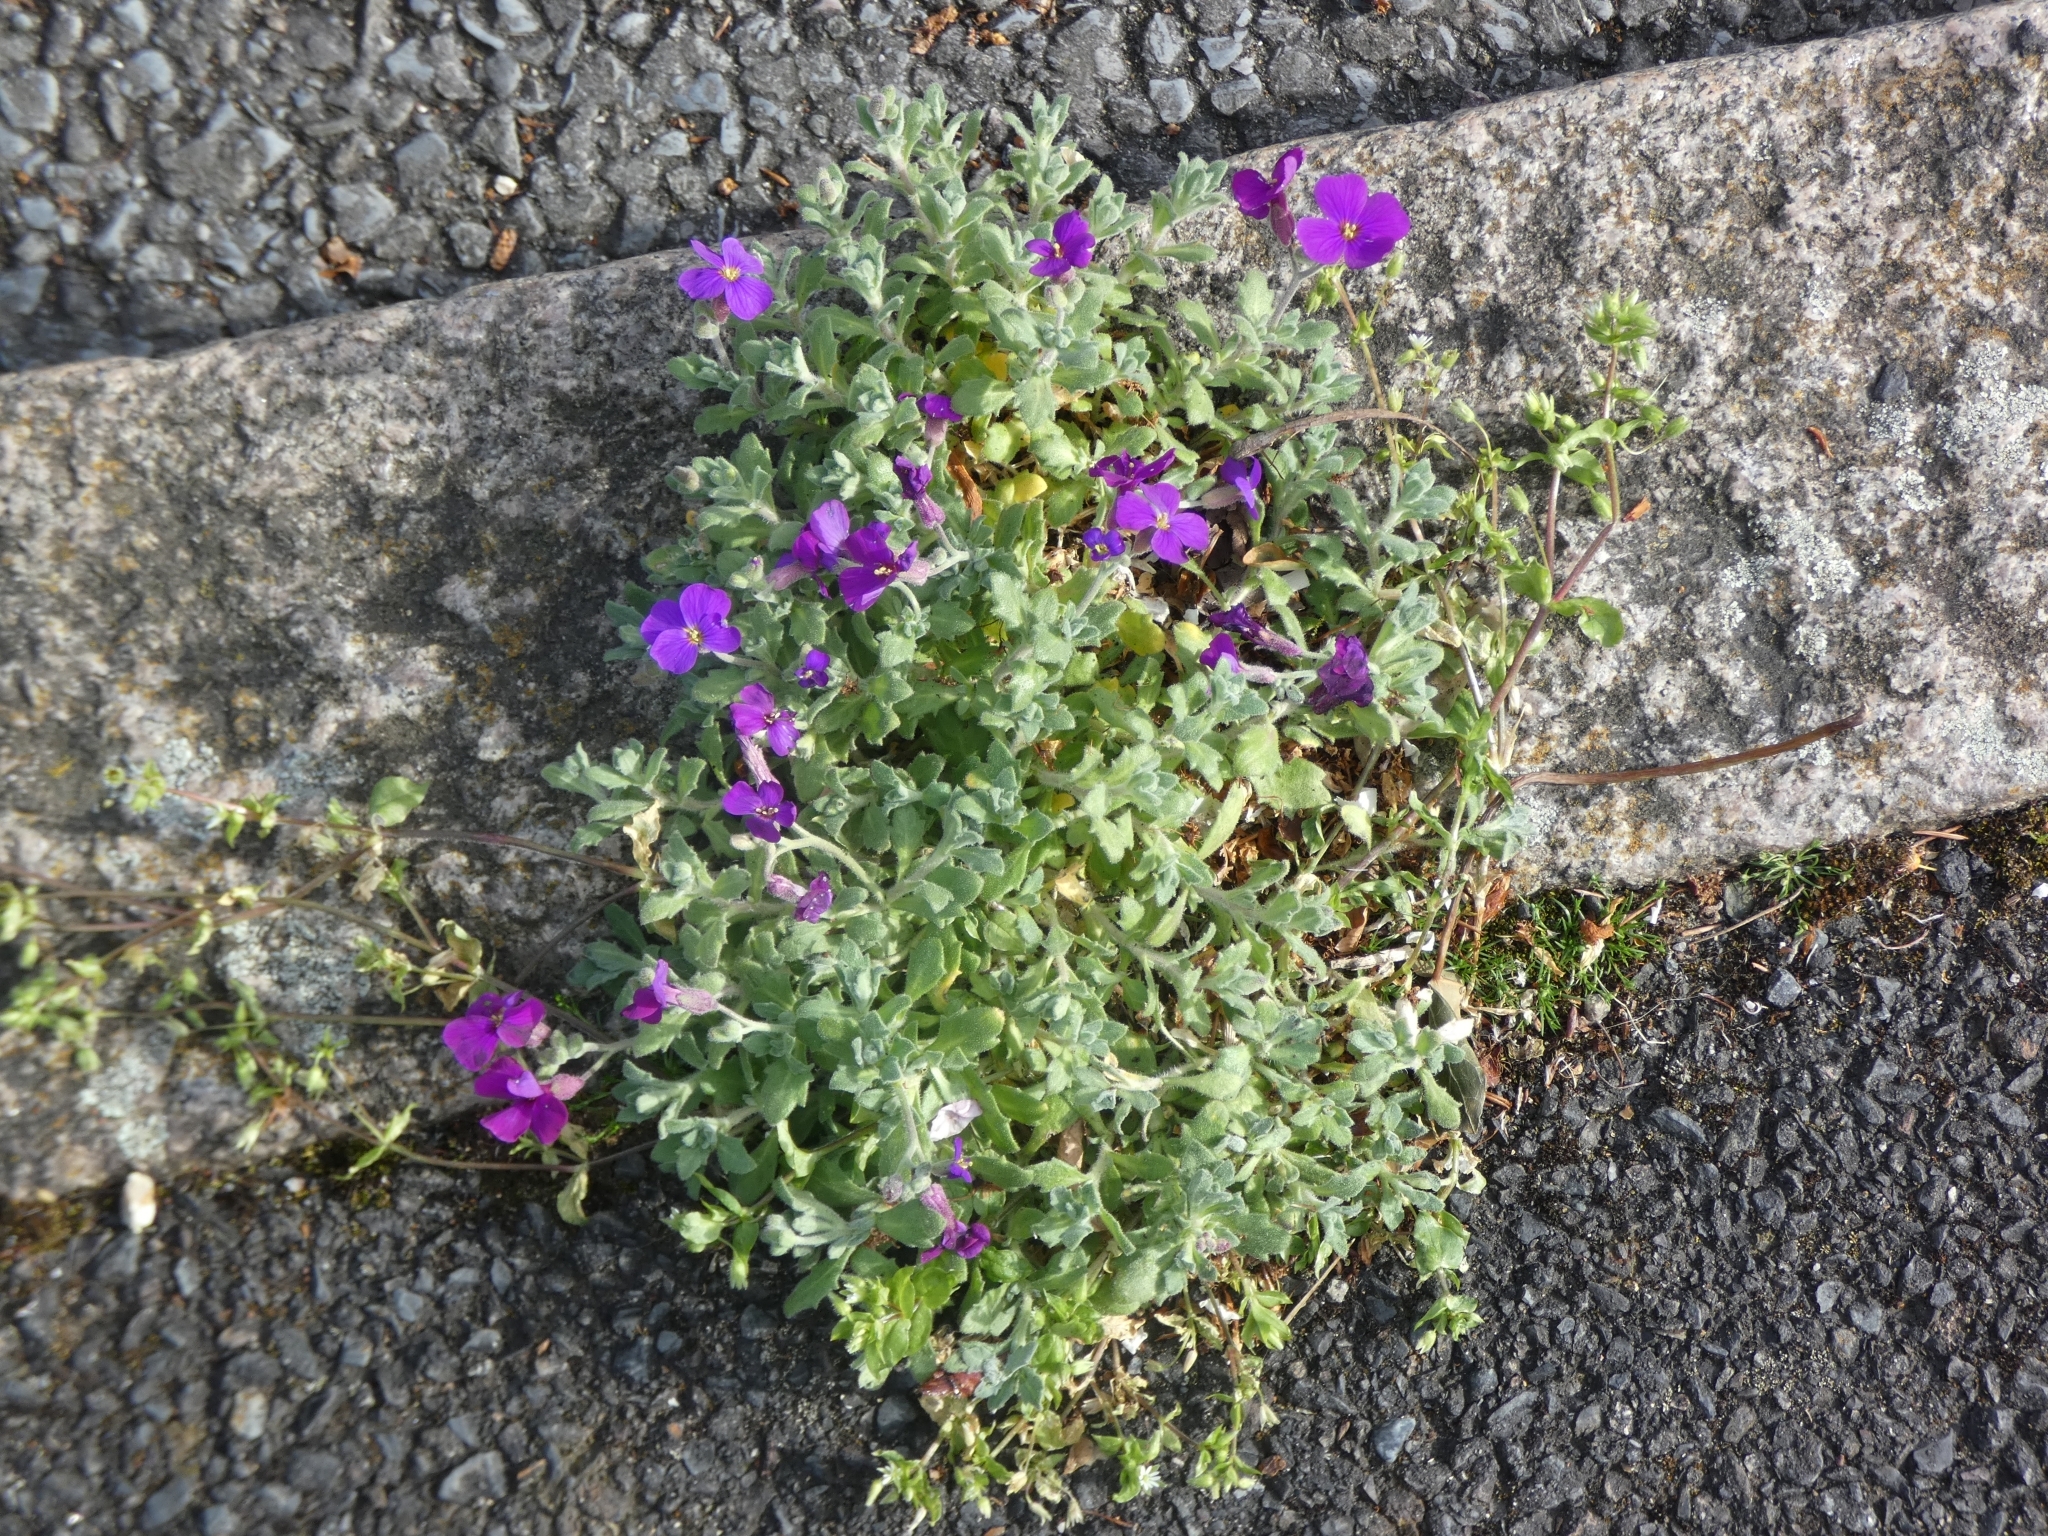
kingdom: Plantae
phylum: Tracheophyta
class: Magnoliopsida
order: Brassicales
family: Brassicaceae
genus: Aubrieta
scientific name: Aubrieta deltoidea
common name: Aubretia
